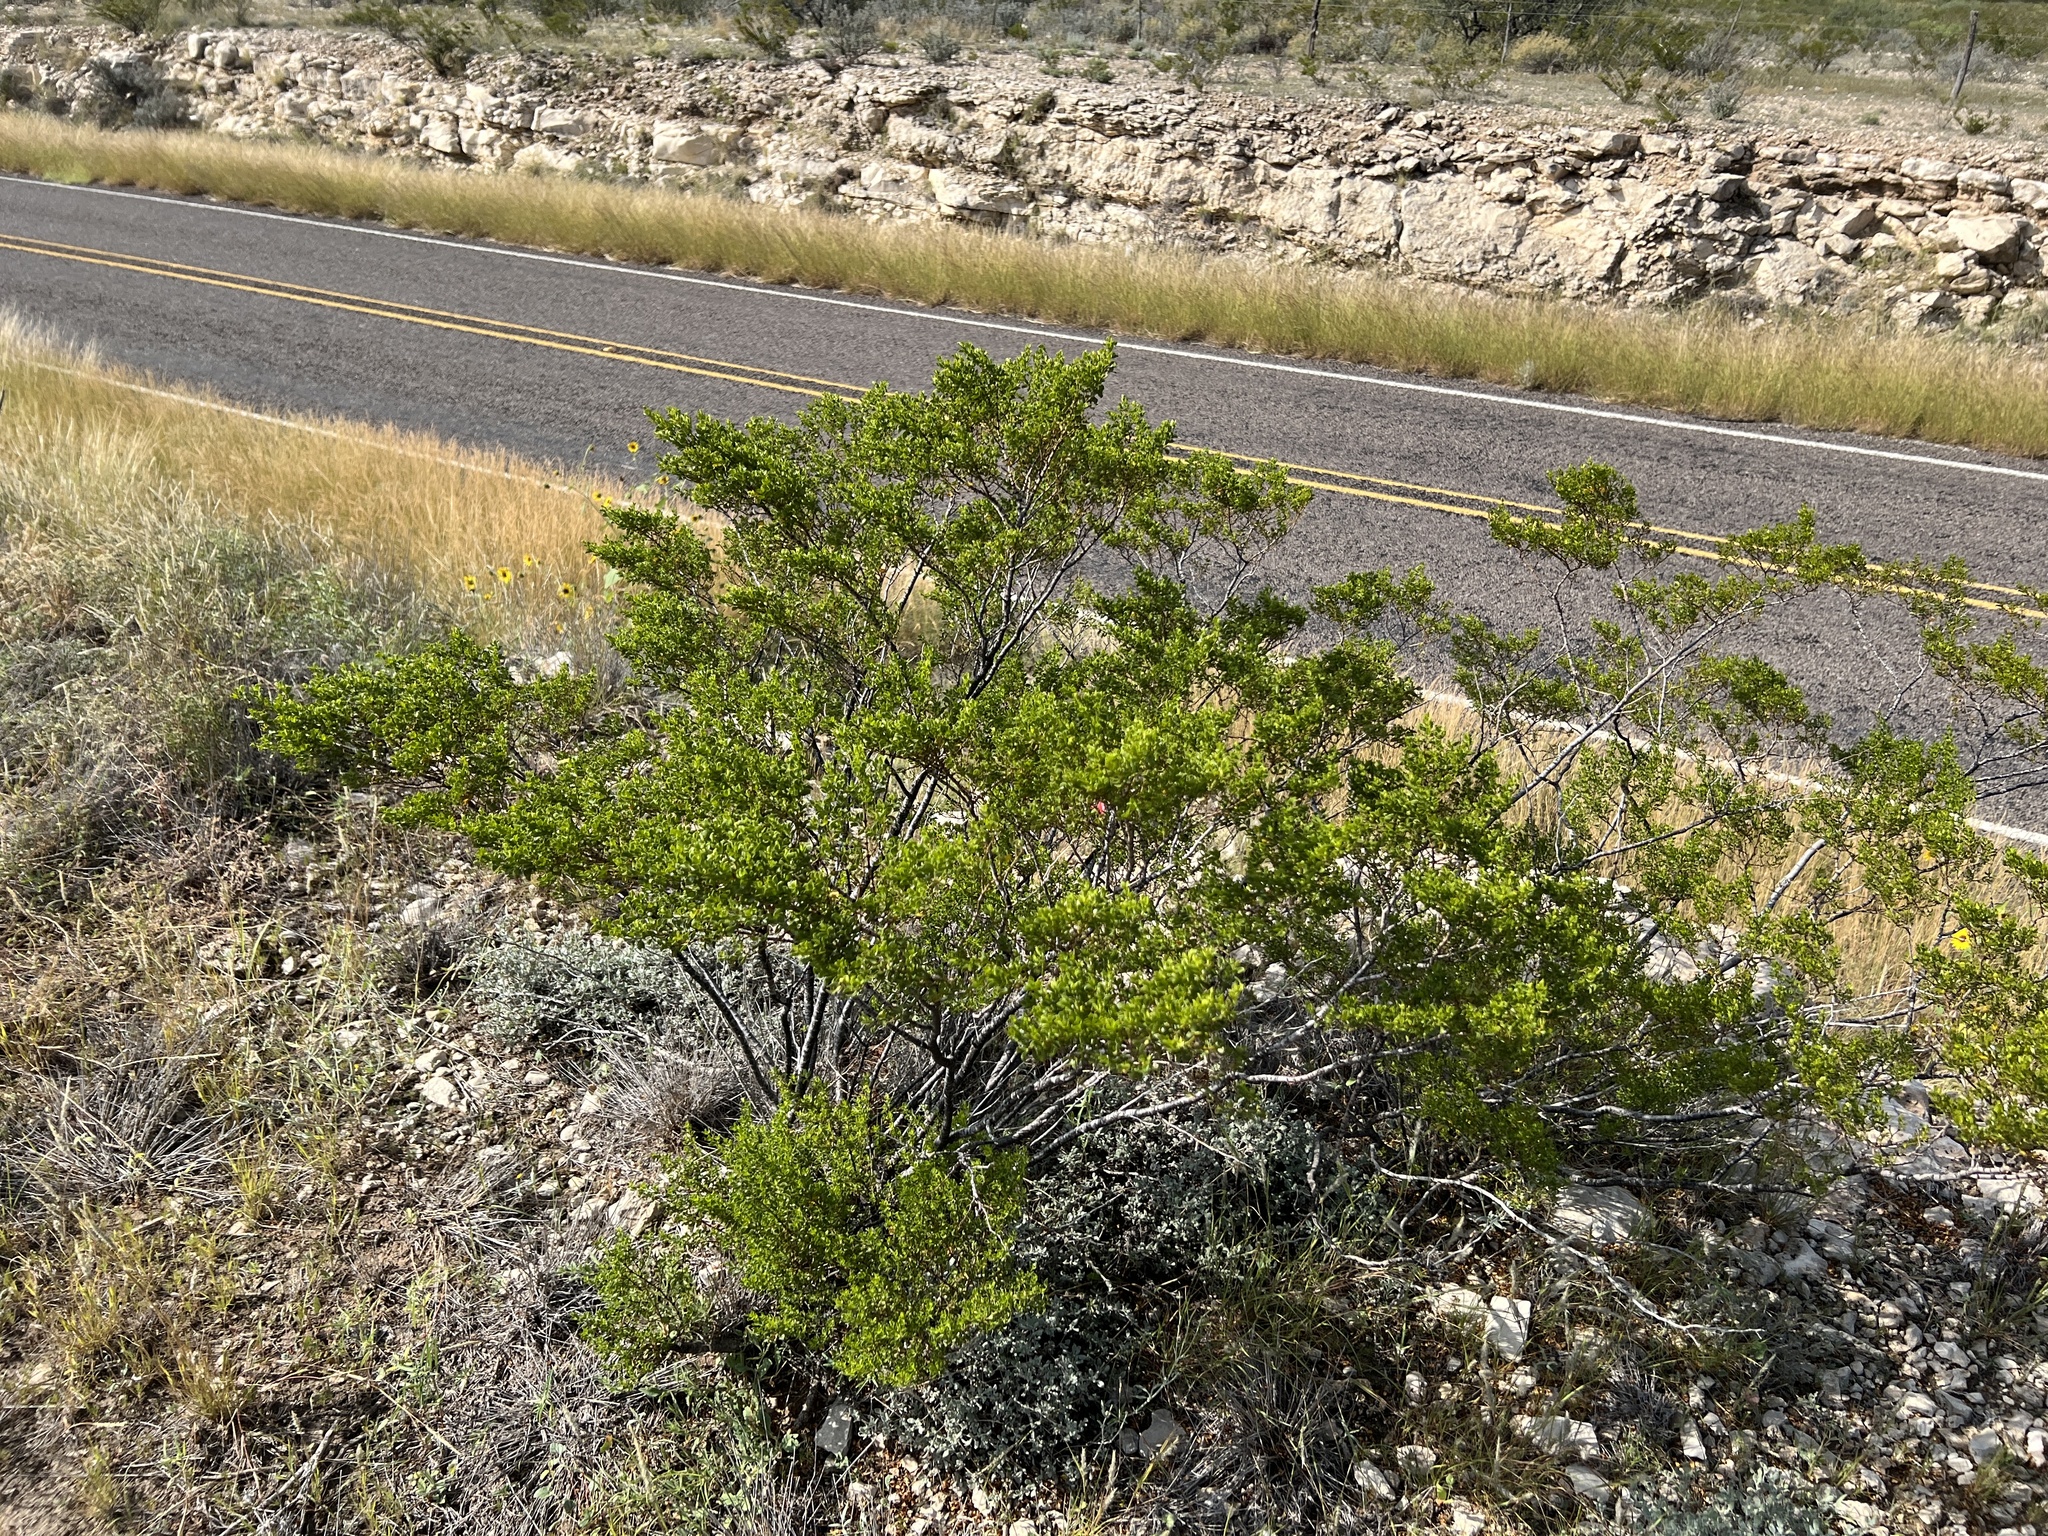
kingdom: Plantae
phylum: Tracheophyta
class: Magnoliopsida
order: Zygophyllales
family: Zygophyllaceae
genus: Larrea
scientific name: Larrea tridentata
